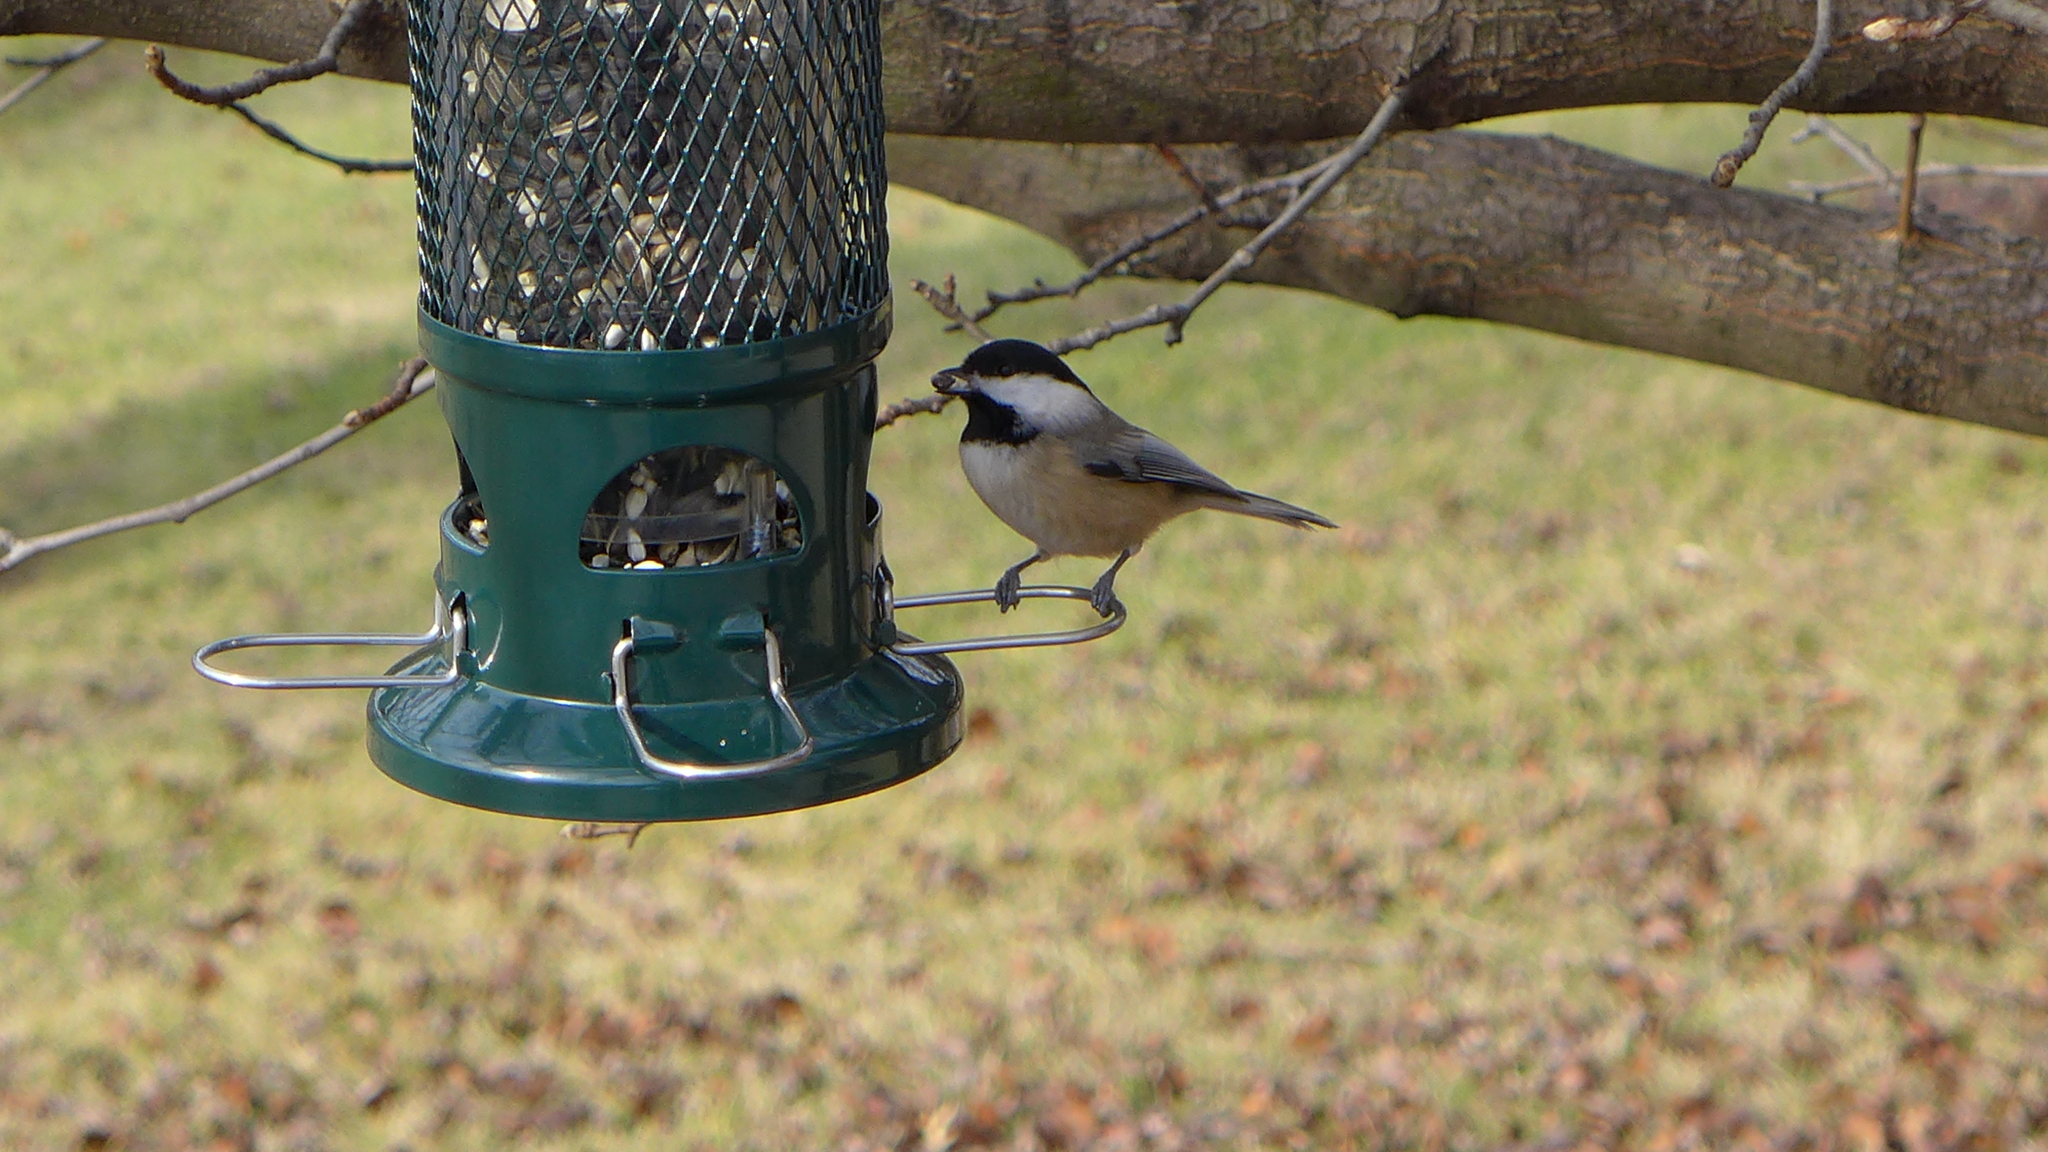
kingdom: Animalia
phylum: Chordata
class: Aves
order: Passeriformes
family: Paridae
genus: Poecile
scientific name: Poecile carolinensis
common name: Carolina chickadee
